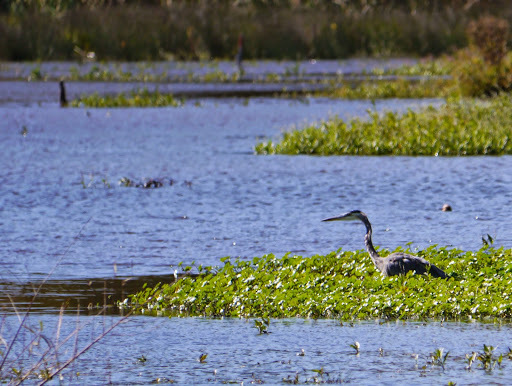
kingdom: Animalia
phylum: Chordata
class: Aves
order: Pelecaniformes
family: Ardeidae
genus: Ardea
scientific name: Ardea herodias
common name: Great blue heron
